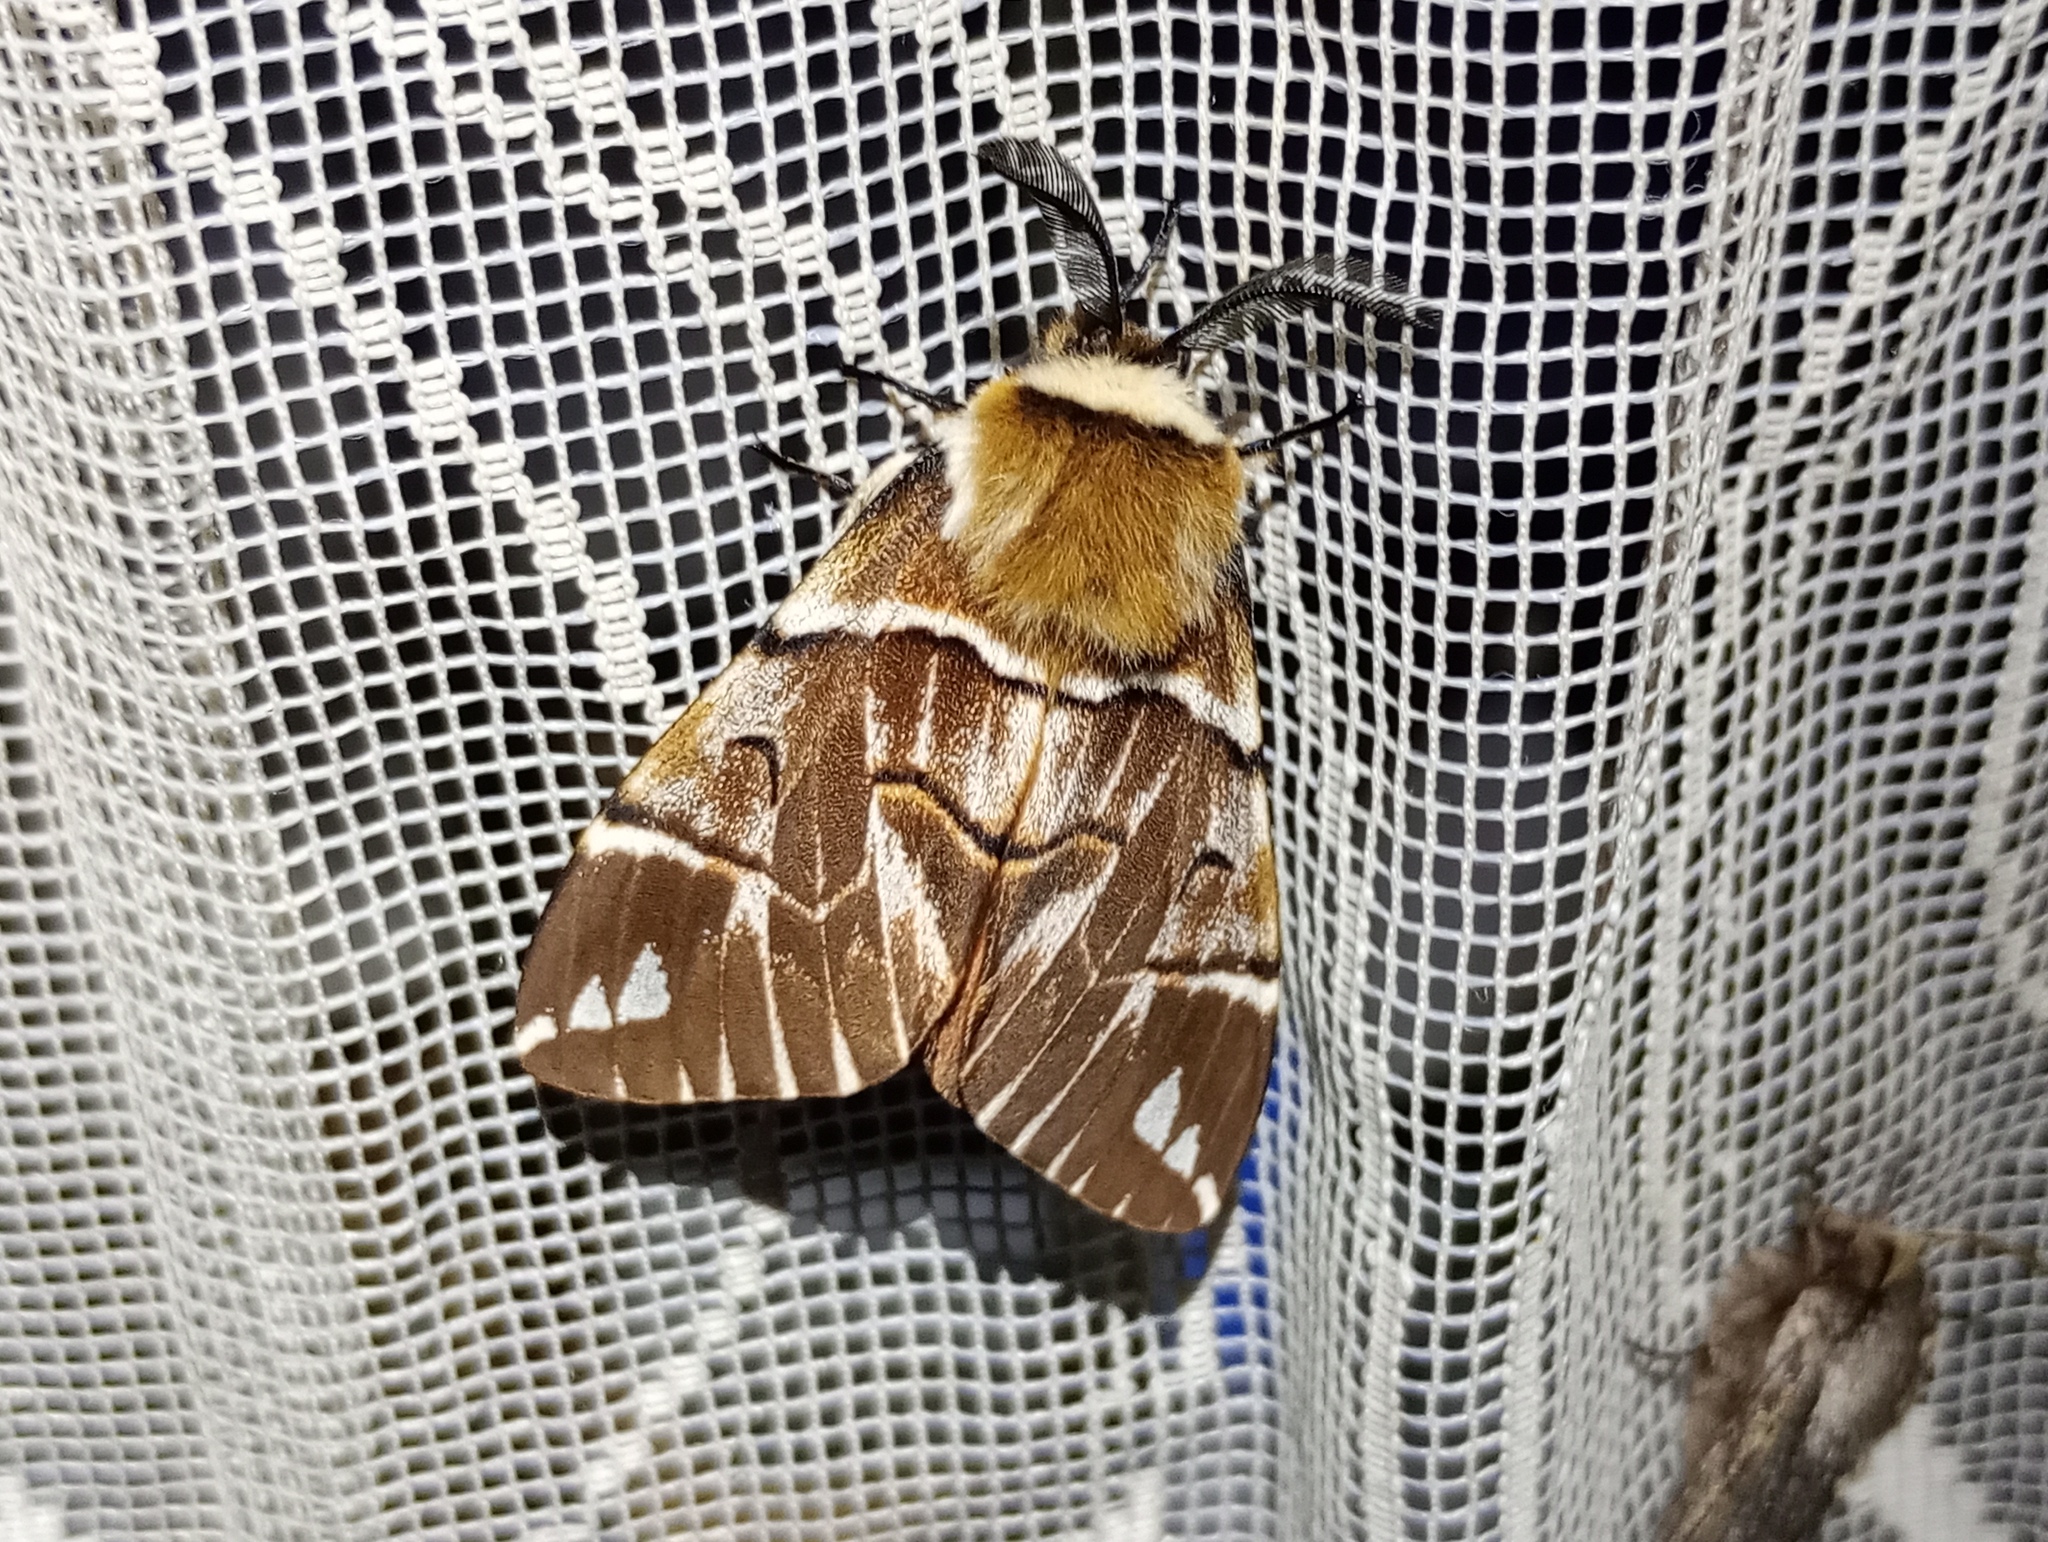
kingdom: Animalia
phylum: Arthropoda
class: Insecta
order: Lepidoptera
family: Endromidae
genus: Endromis
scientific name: Endromis versicolora
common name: Kentish glory
